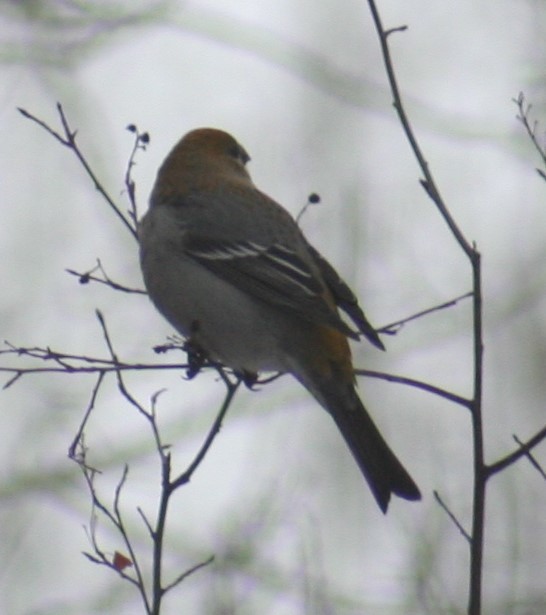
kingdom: Animalia
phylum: Chordata
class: Aves
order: Passeriformes
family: Fringillidae
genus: Pinicola
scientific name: Pinicola enucleator
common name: Pine grosbeak
